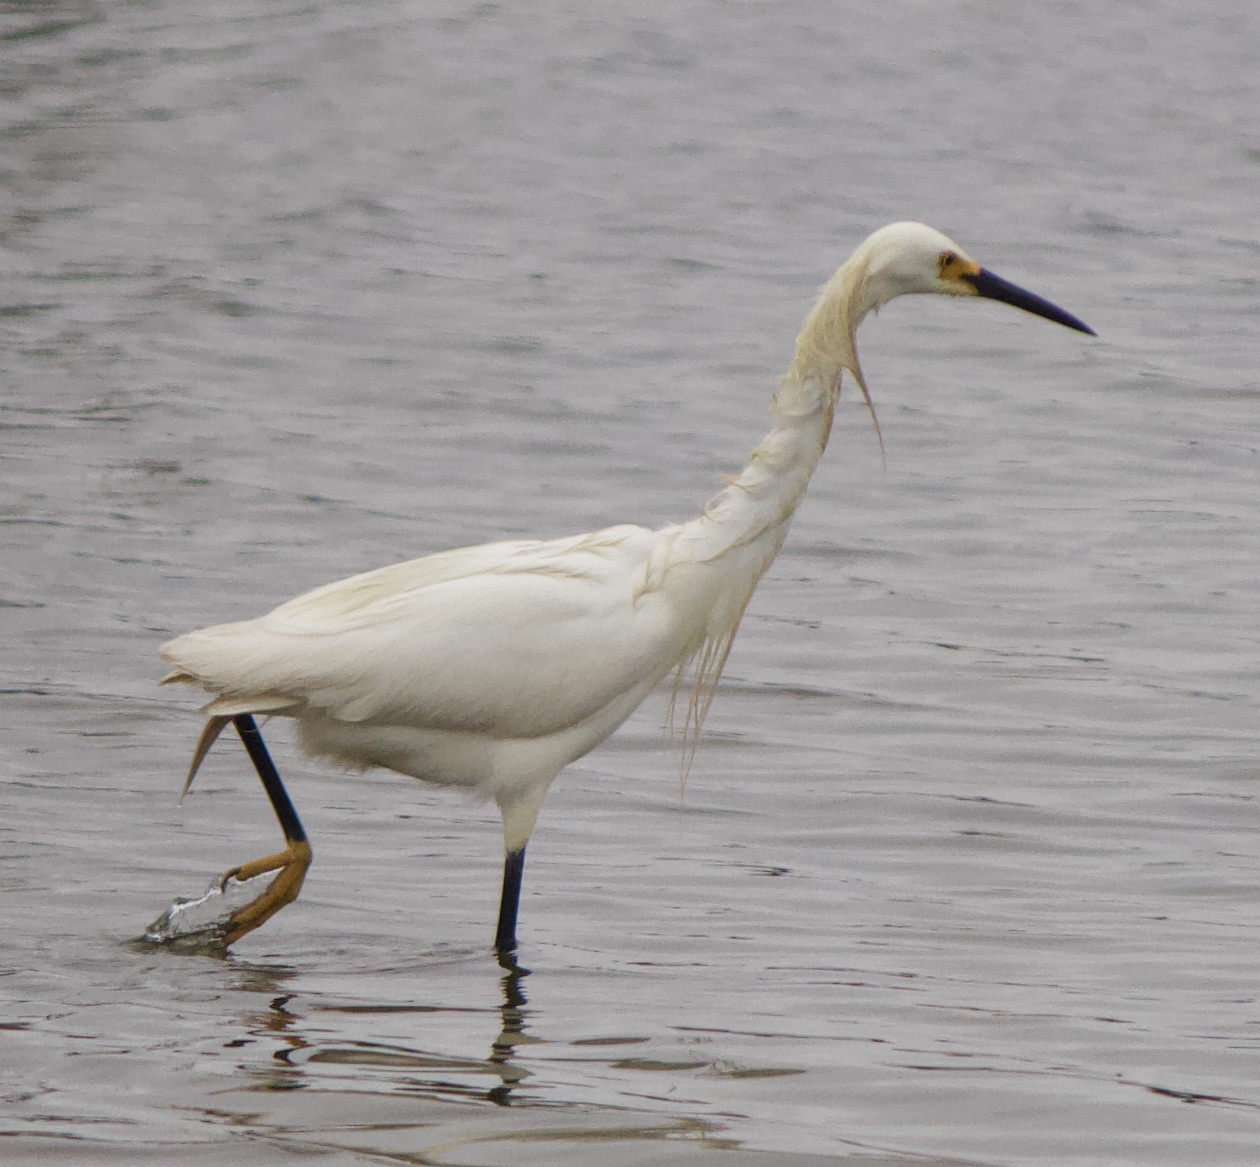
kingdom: Animalia
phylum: Chordata
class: Aves
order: Pelecaniformes
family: Ardeidae
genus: Egretta
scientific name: Egretta thula
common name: Snowy egret
